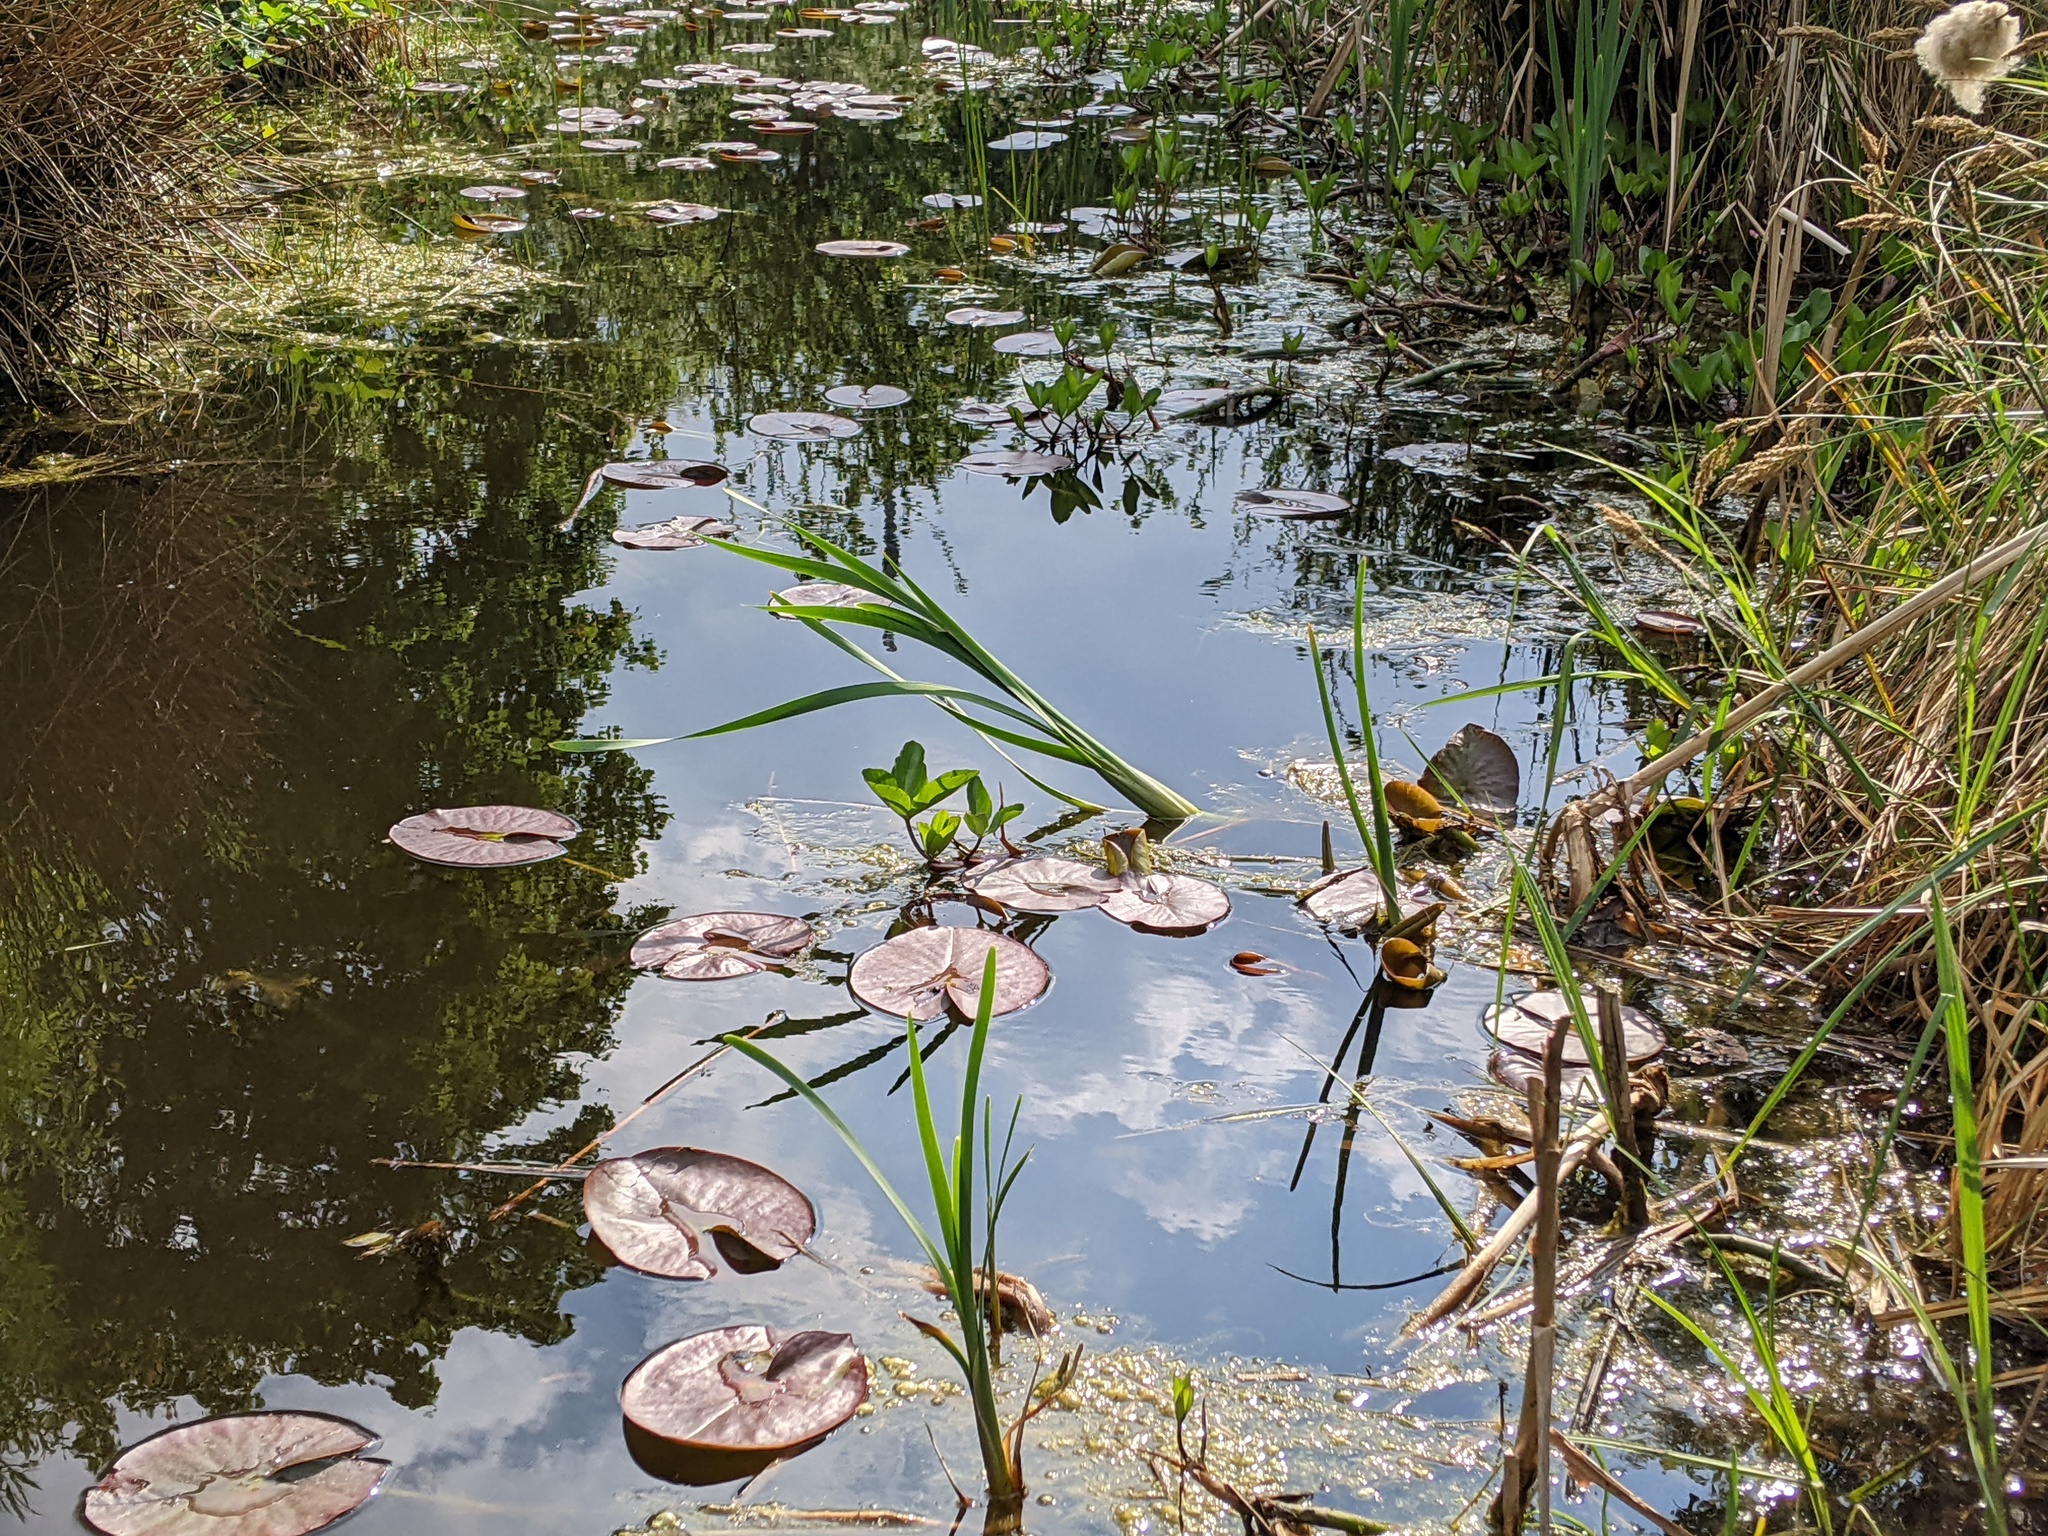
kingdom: Plantae
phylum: Tracheophyta
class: Magnoliopsida
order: Asterales
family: Menyanthaceae
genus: Menyanthes
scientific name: Menyanthes trifoliata
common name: Bogbean
